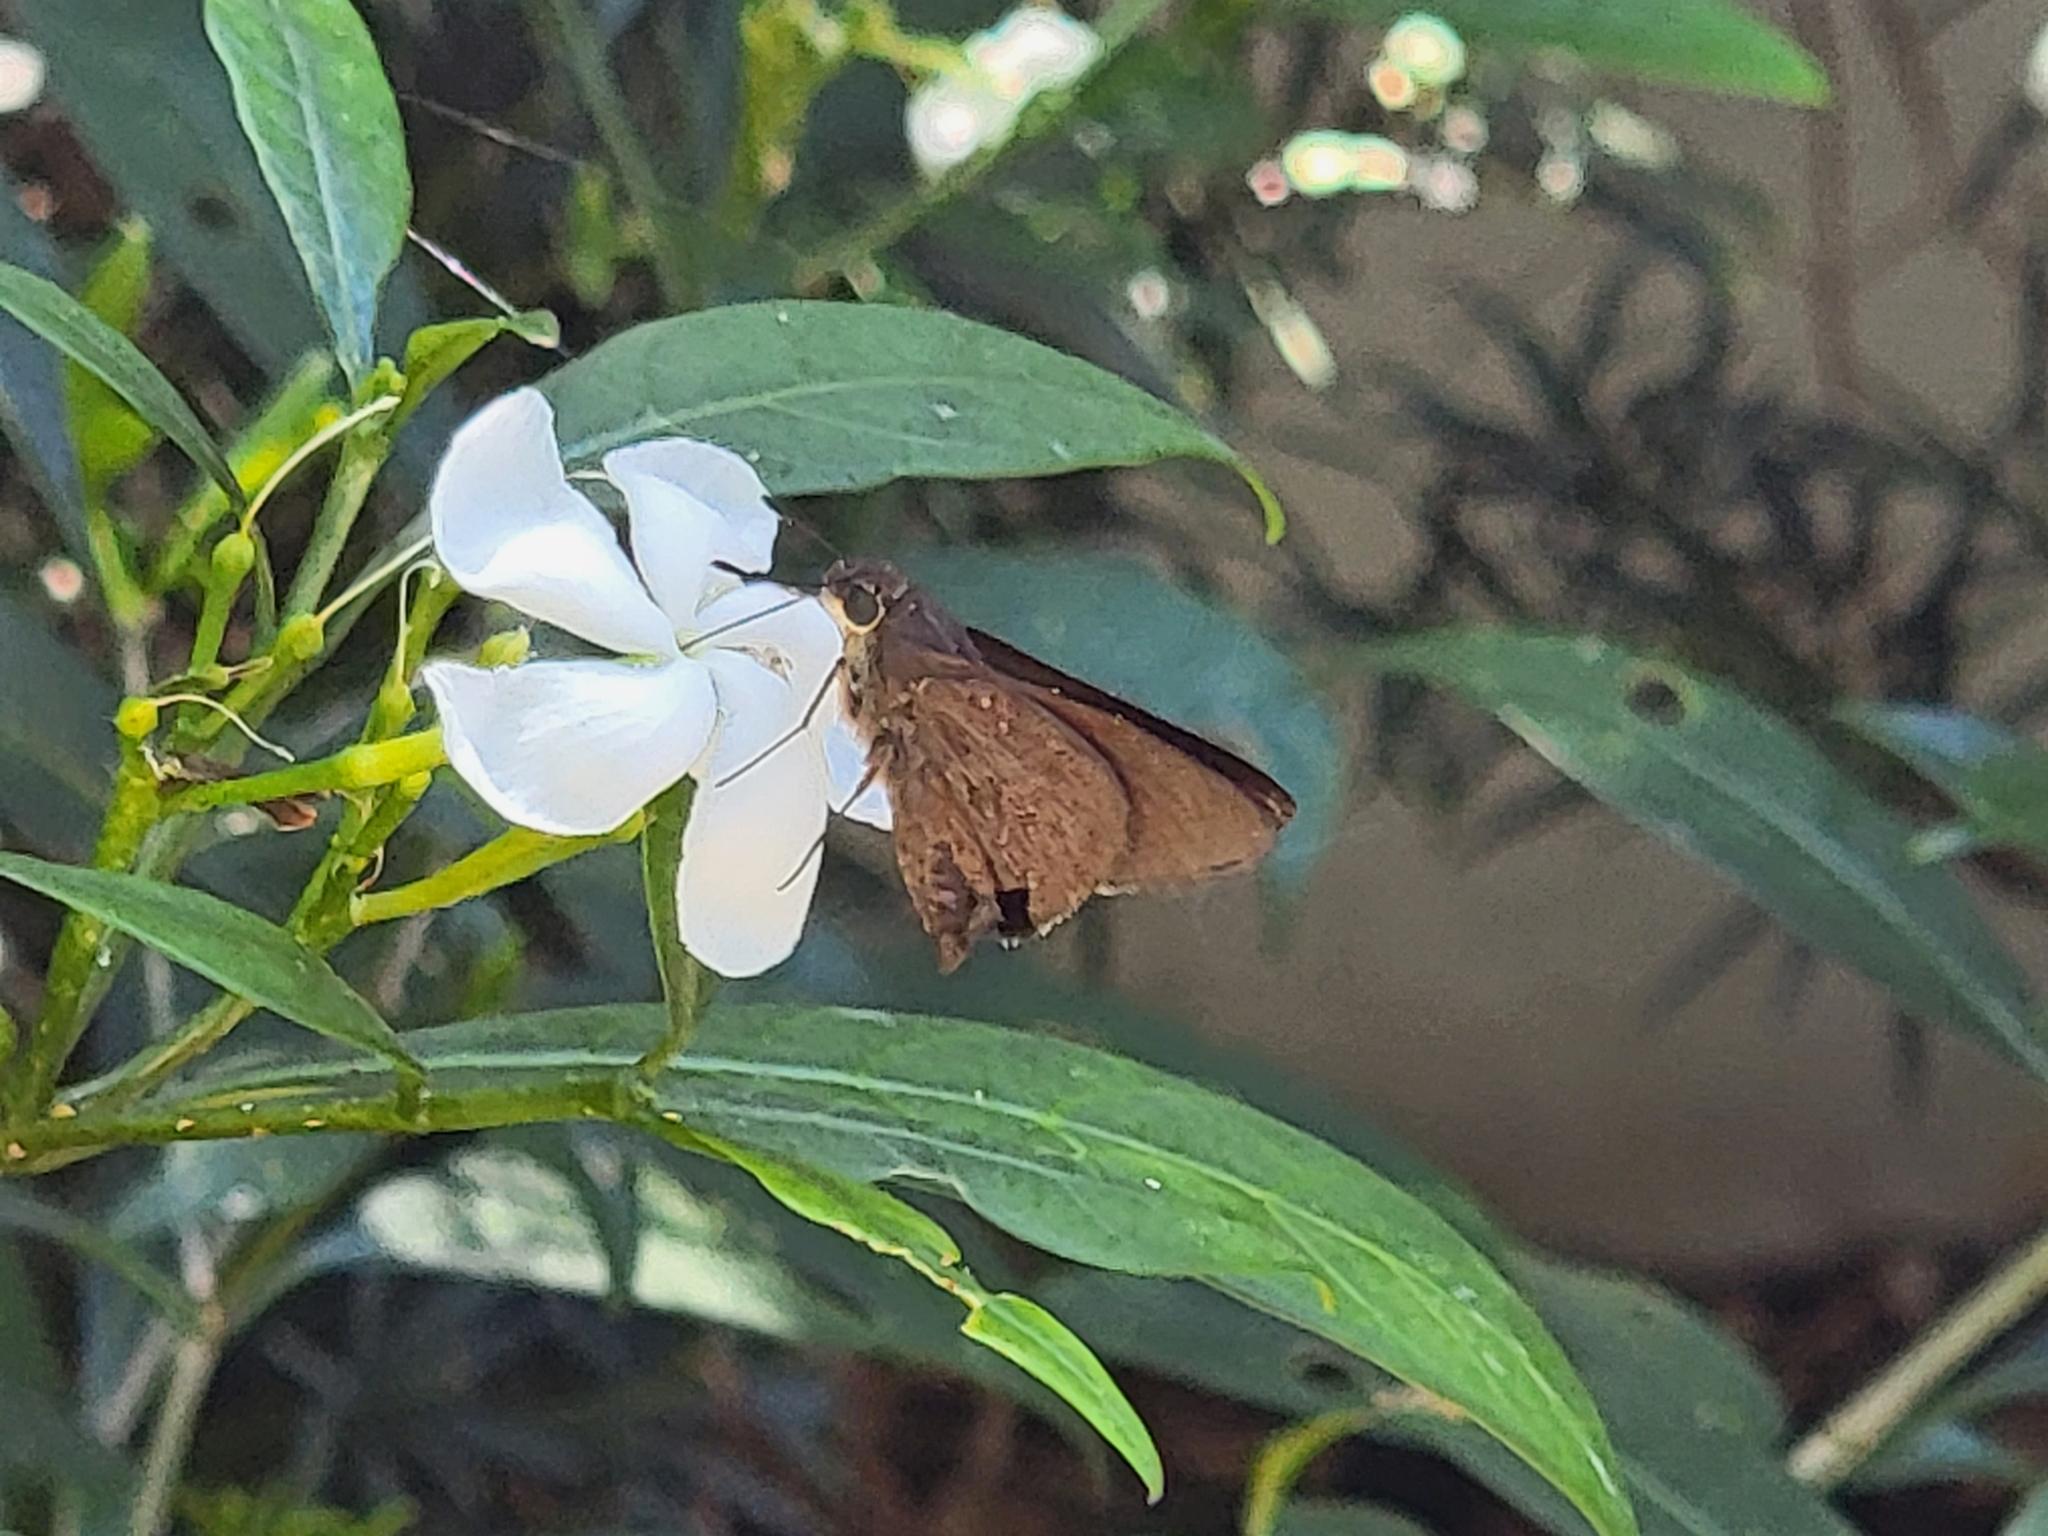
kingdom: Animalia
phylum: Arthropoda
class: Insecta
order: Lepidoptera
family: Hesperiidae
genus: Asbolis
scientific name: Asbolis capucinus
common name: Monk skipper
